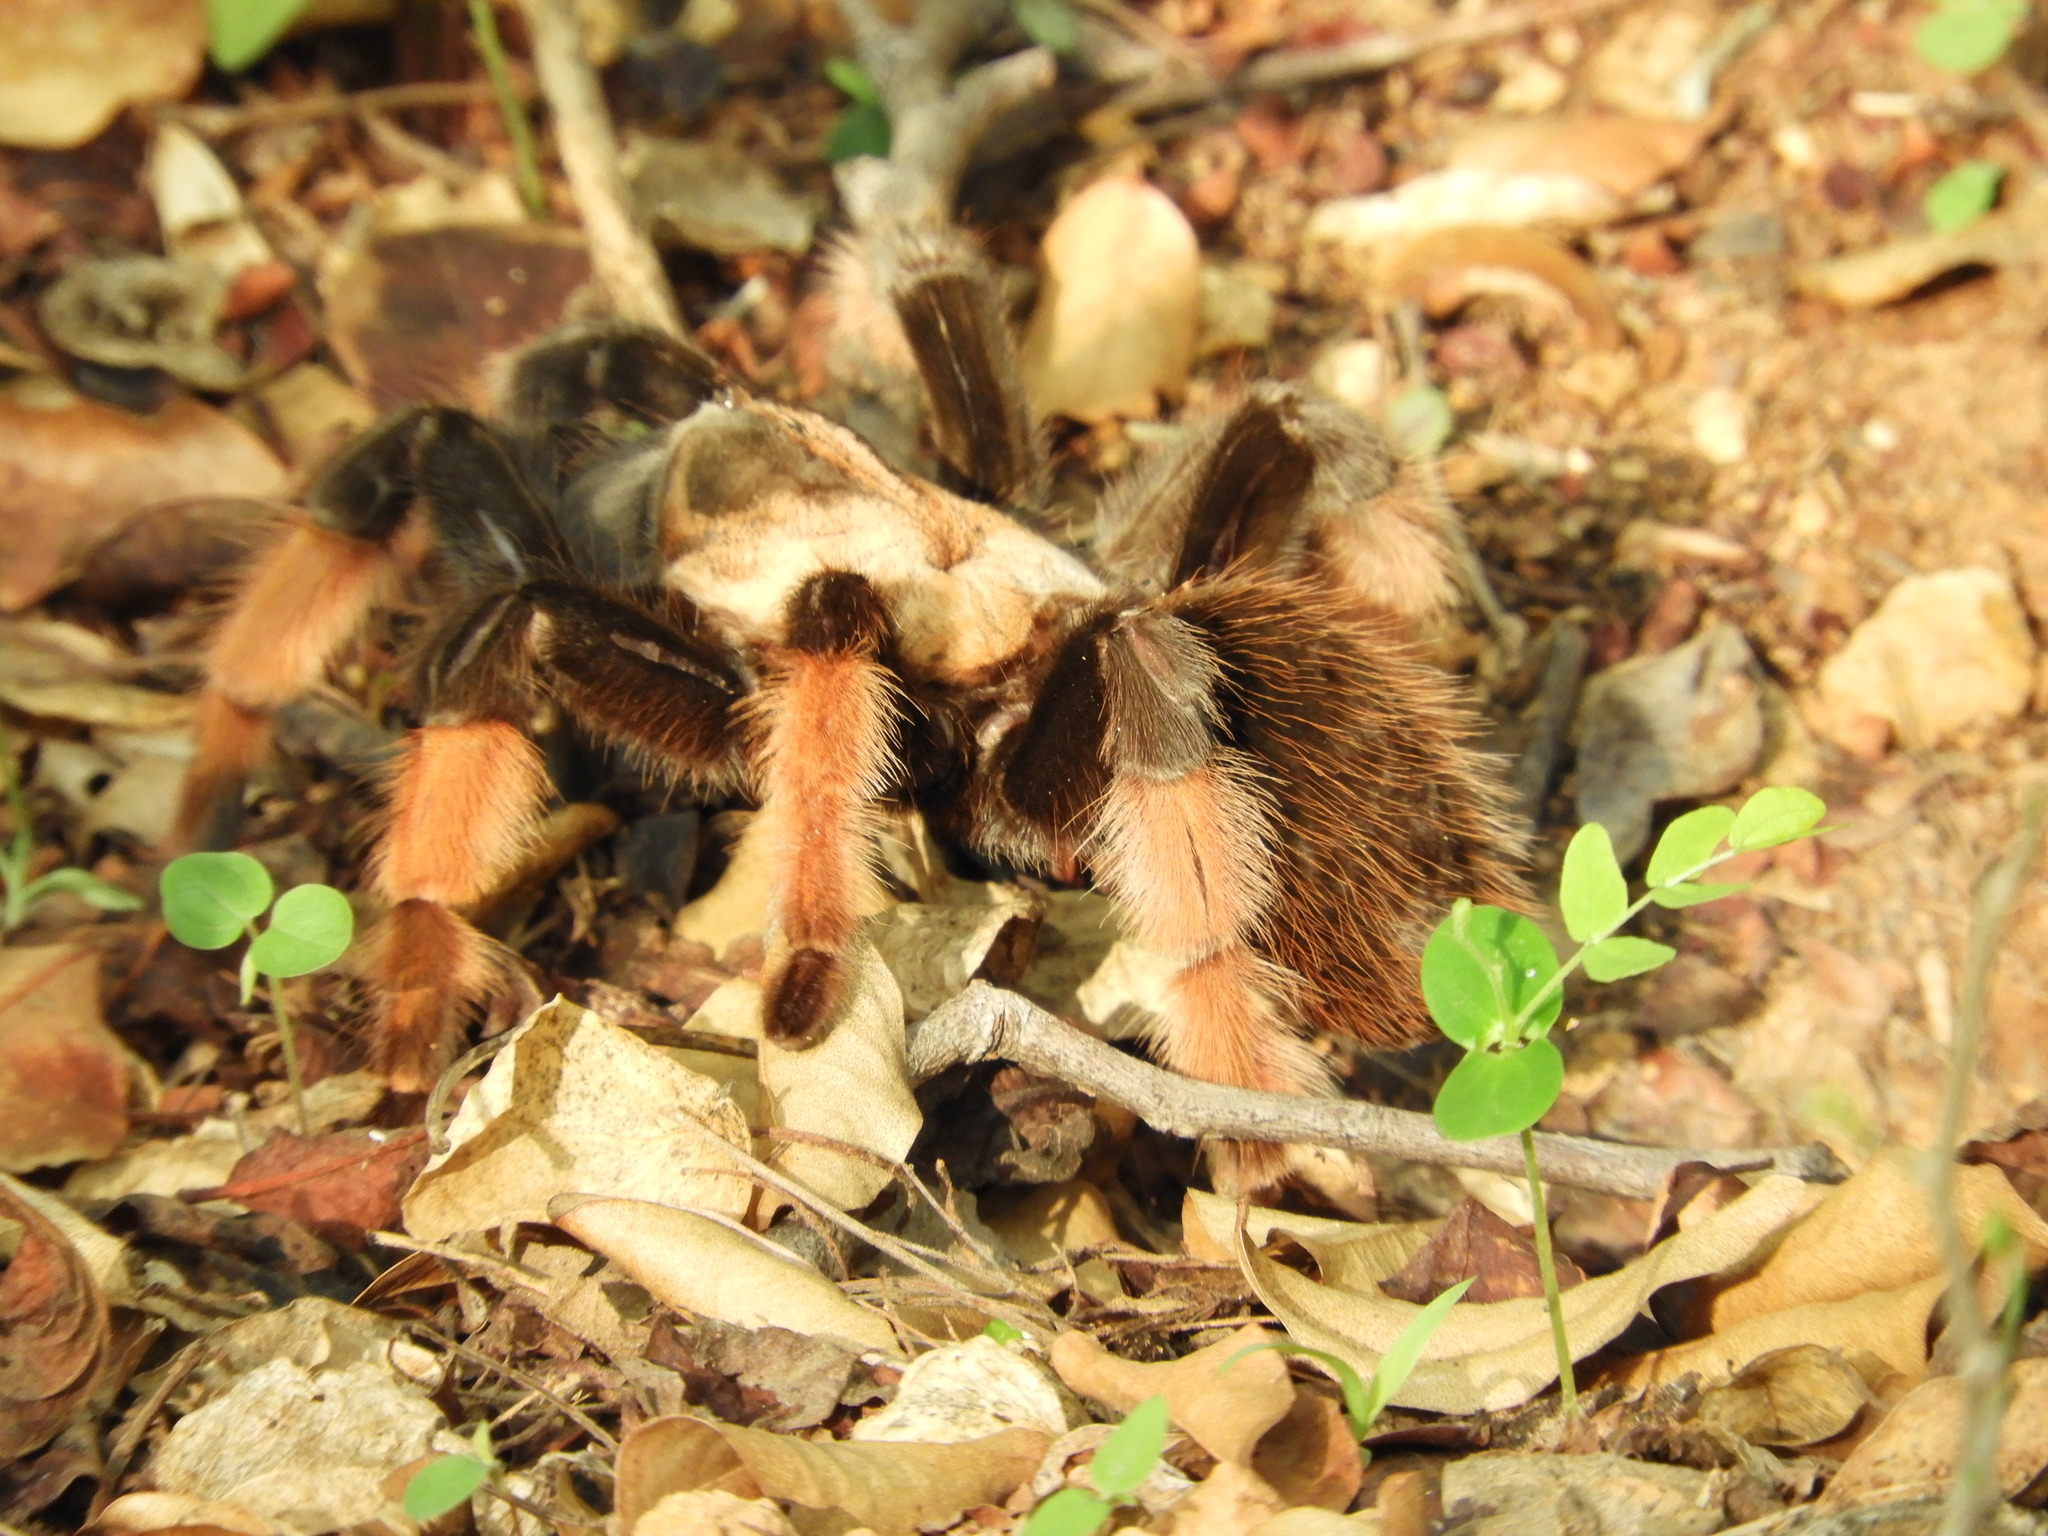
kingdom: Animalia
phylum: Arthropoda
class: Arachnida
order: Araneae
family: Theraphosidae
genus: Brachypelma
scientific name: Brachypelma emilia
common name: Mexican redleg
